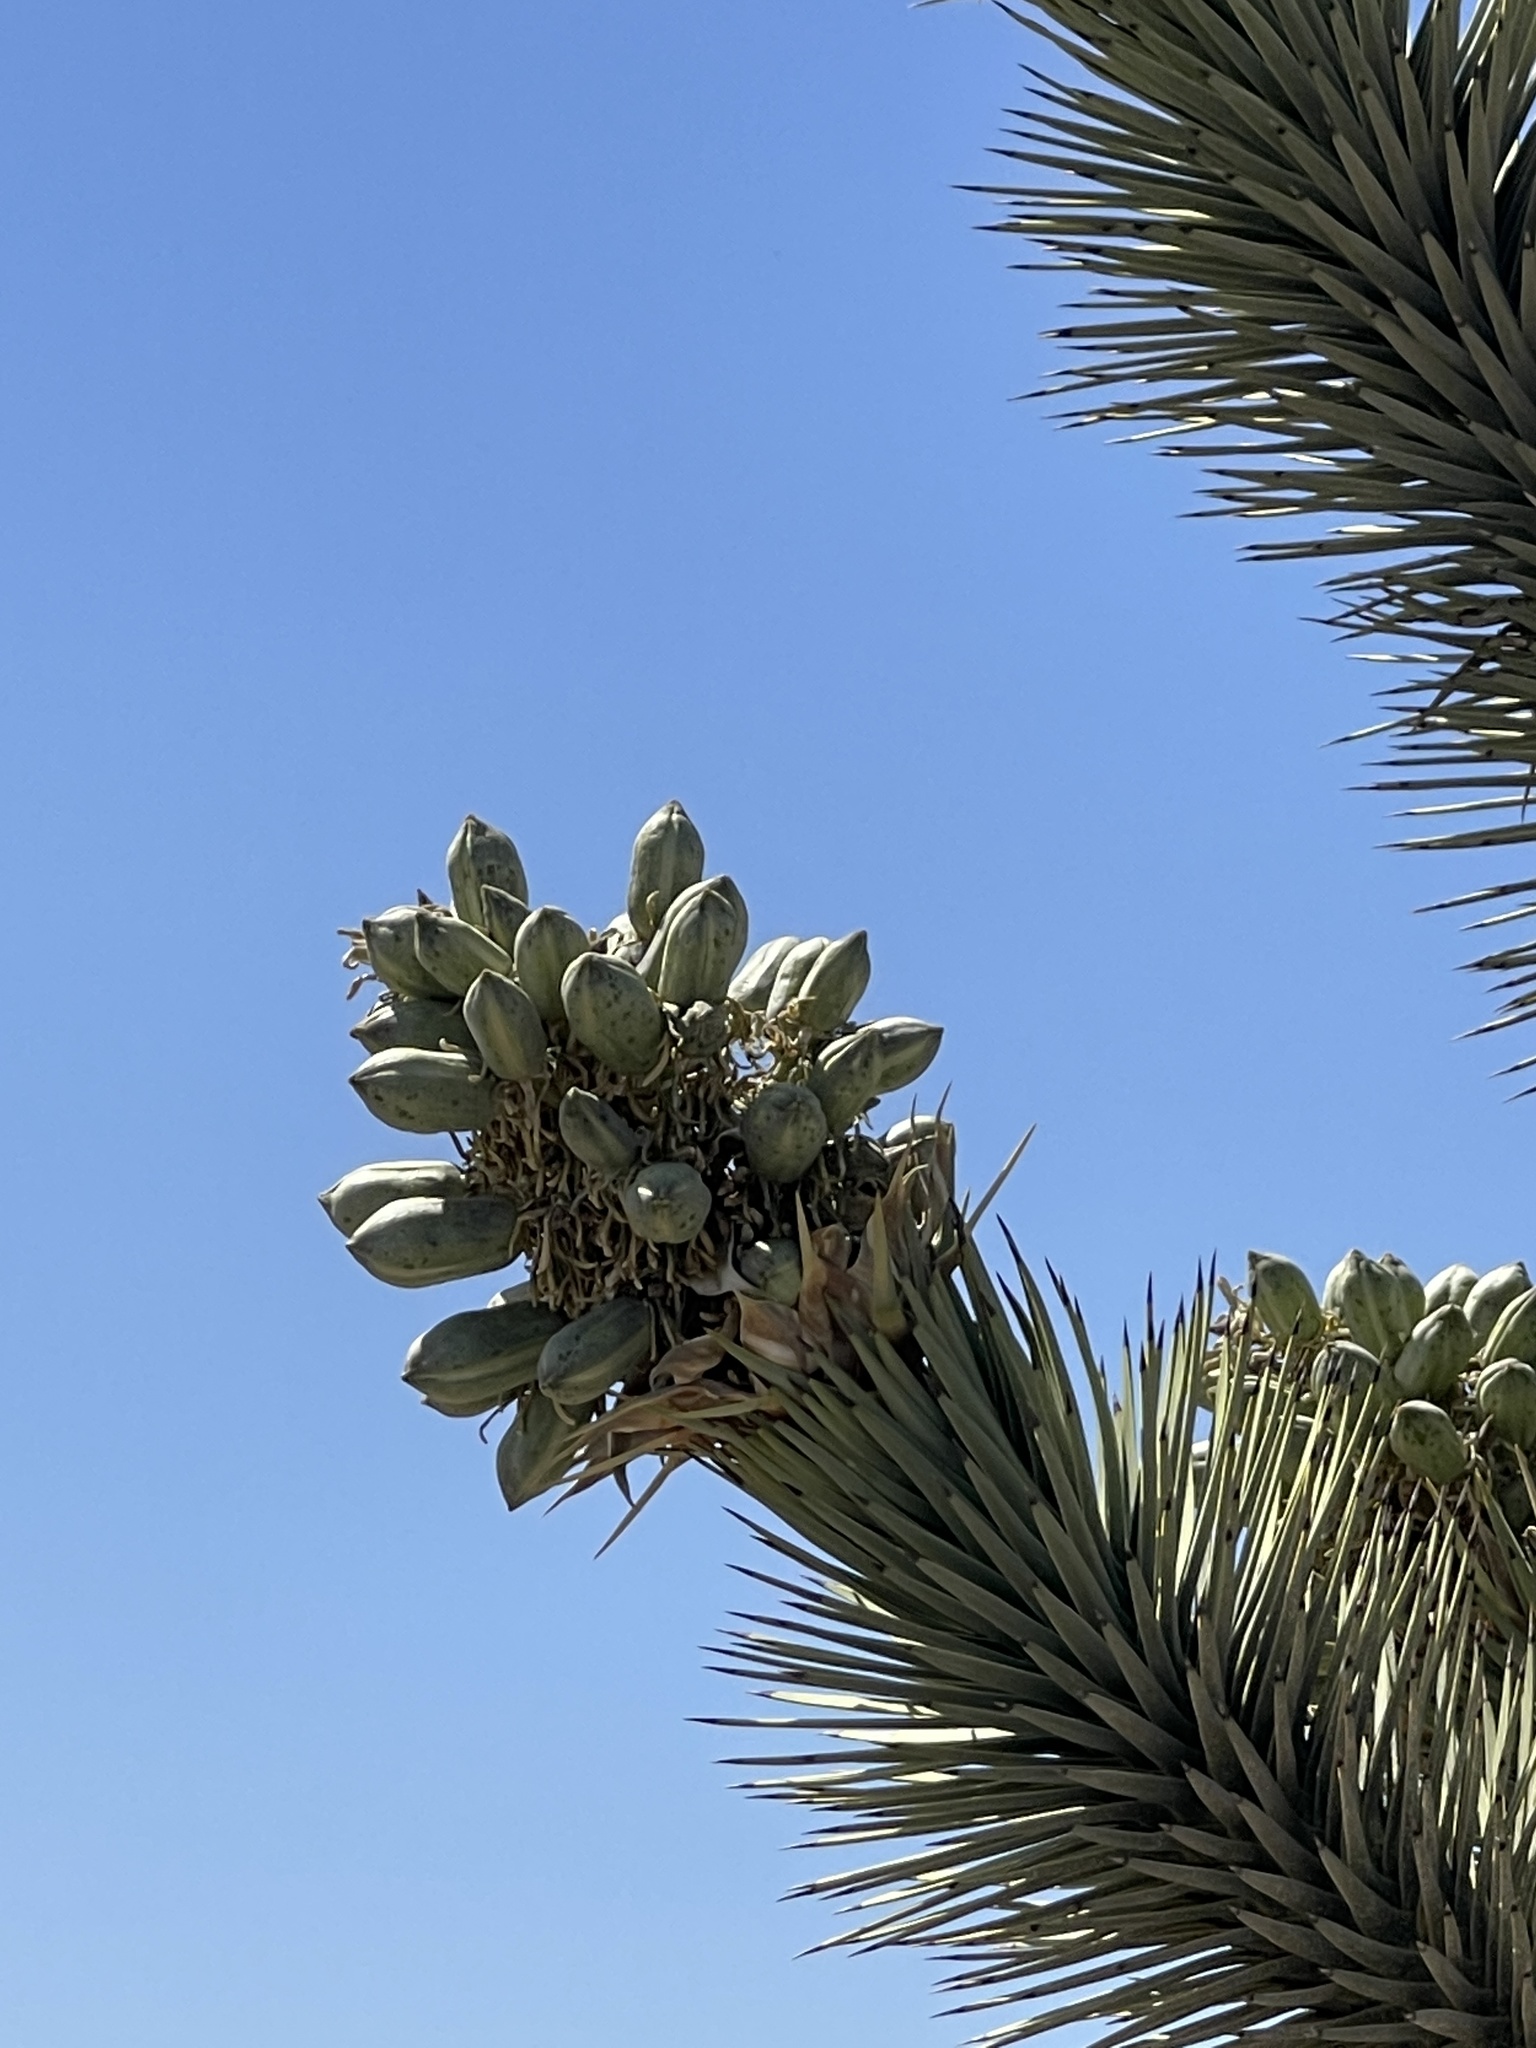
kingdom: Plantae
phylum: Tracheophyta
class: Liliopsida
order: Asparagales
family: Asparagaceae
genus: Yucca
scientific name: Yucca brevifolia
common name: Joshua tree
